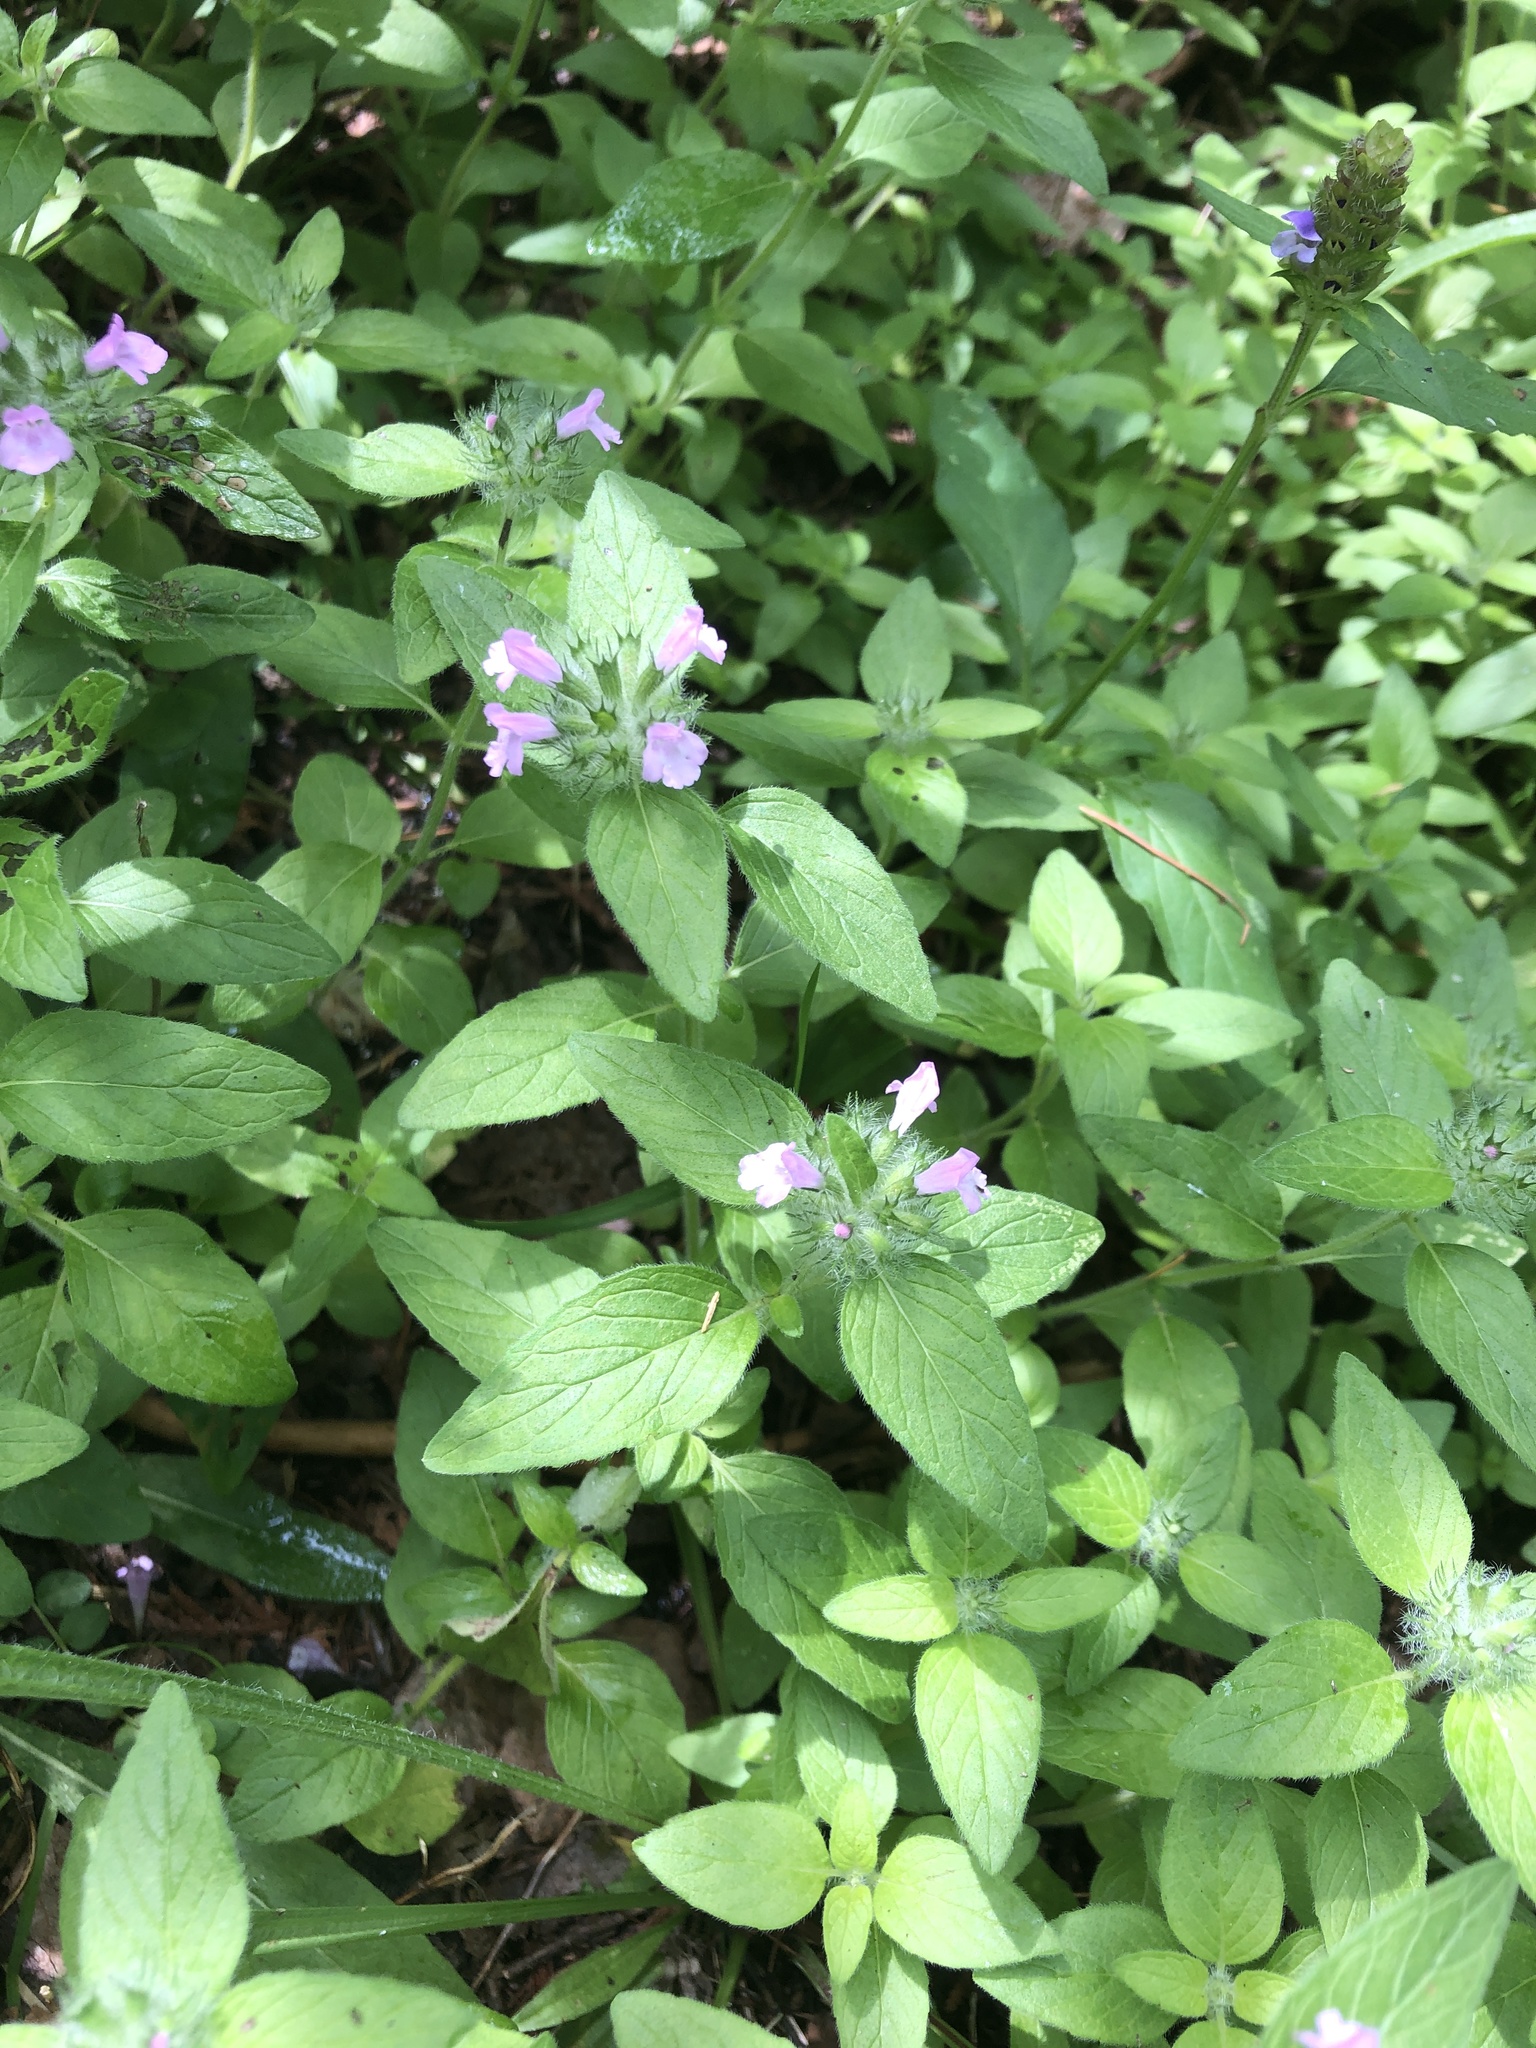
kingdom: Plantae
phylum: Tracheophyta
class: Magnoliopsida
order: Lamiales
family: Lamiaceae
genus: Clinopodium
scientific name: Clinopodium vulgare
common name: Wild basil
